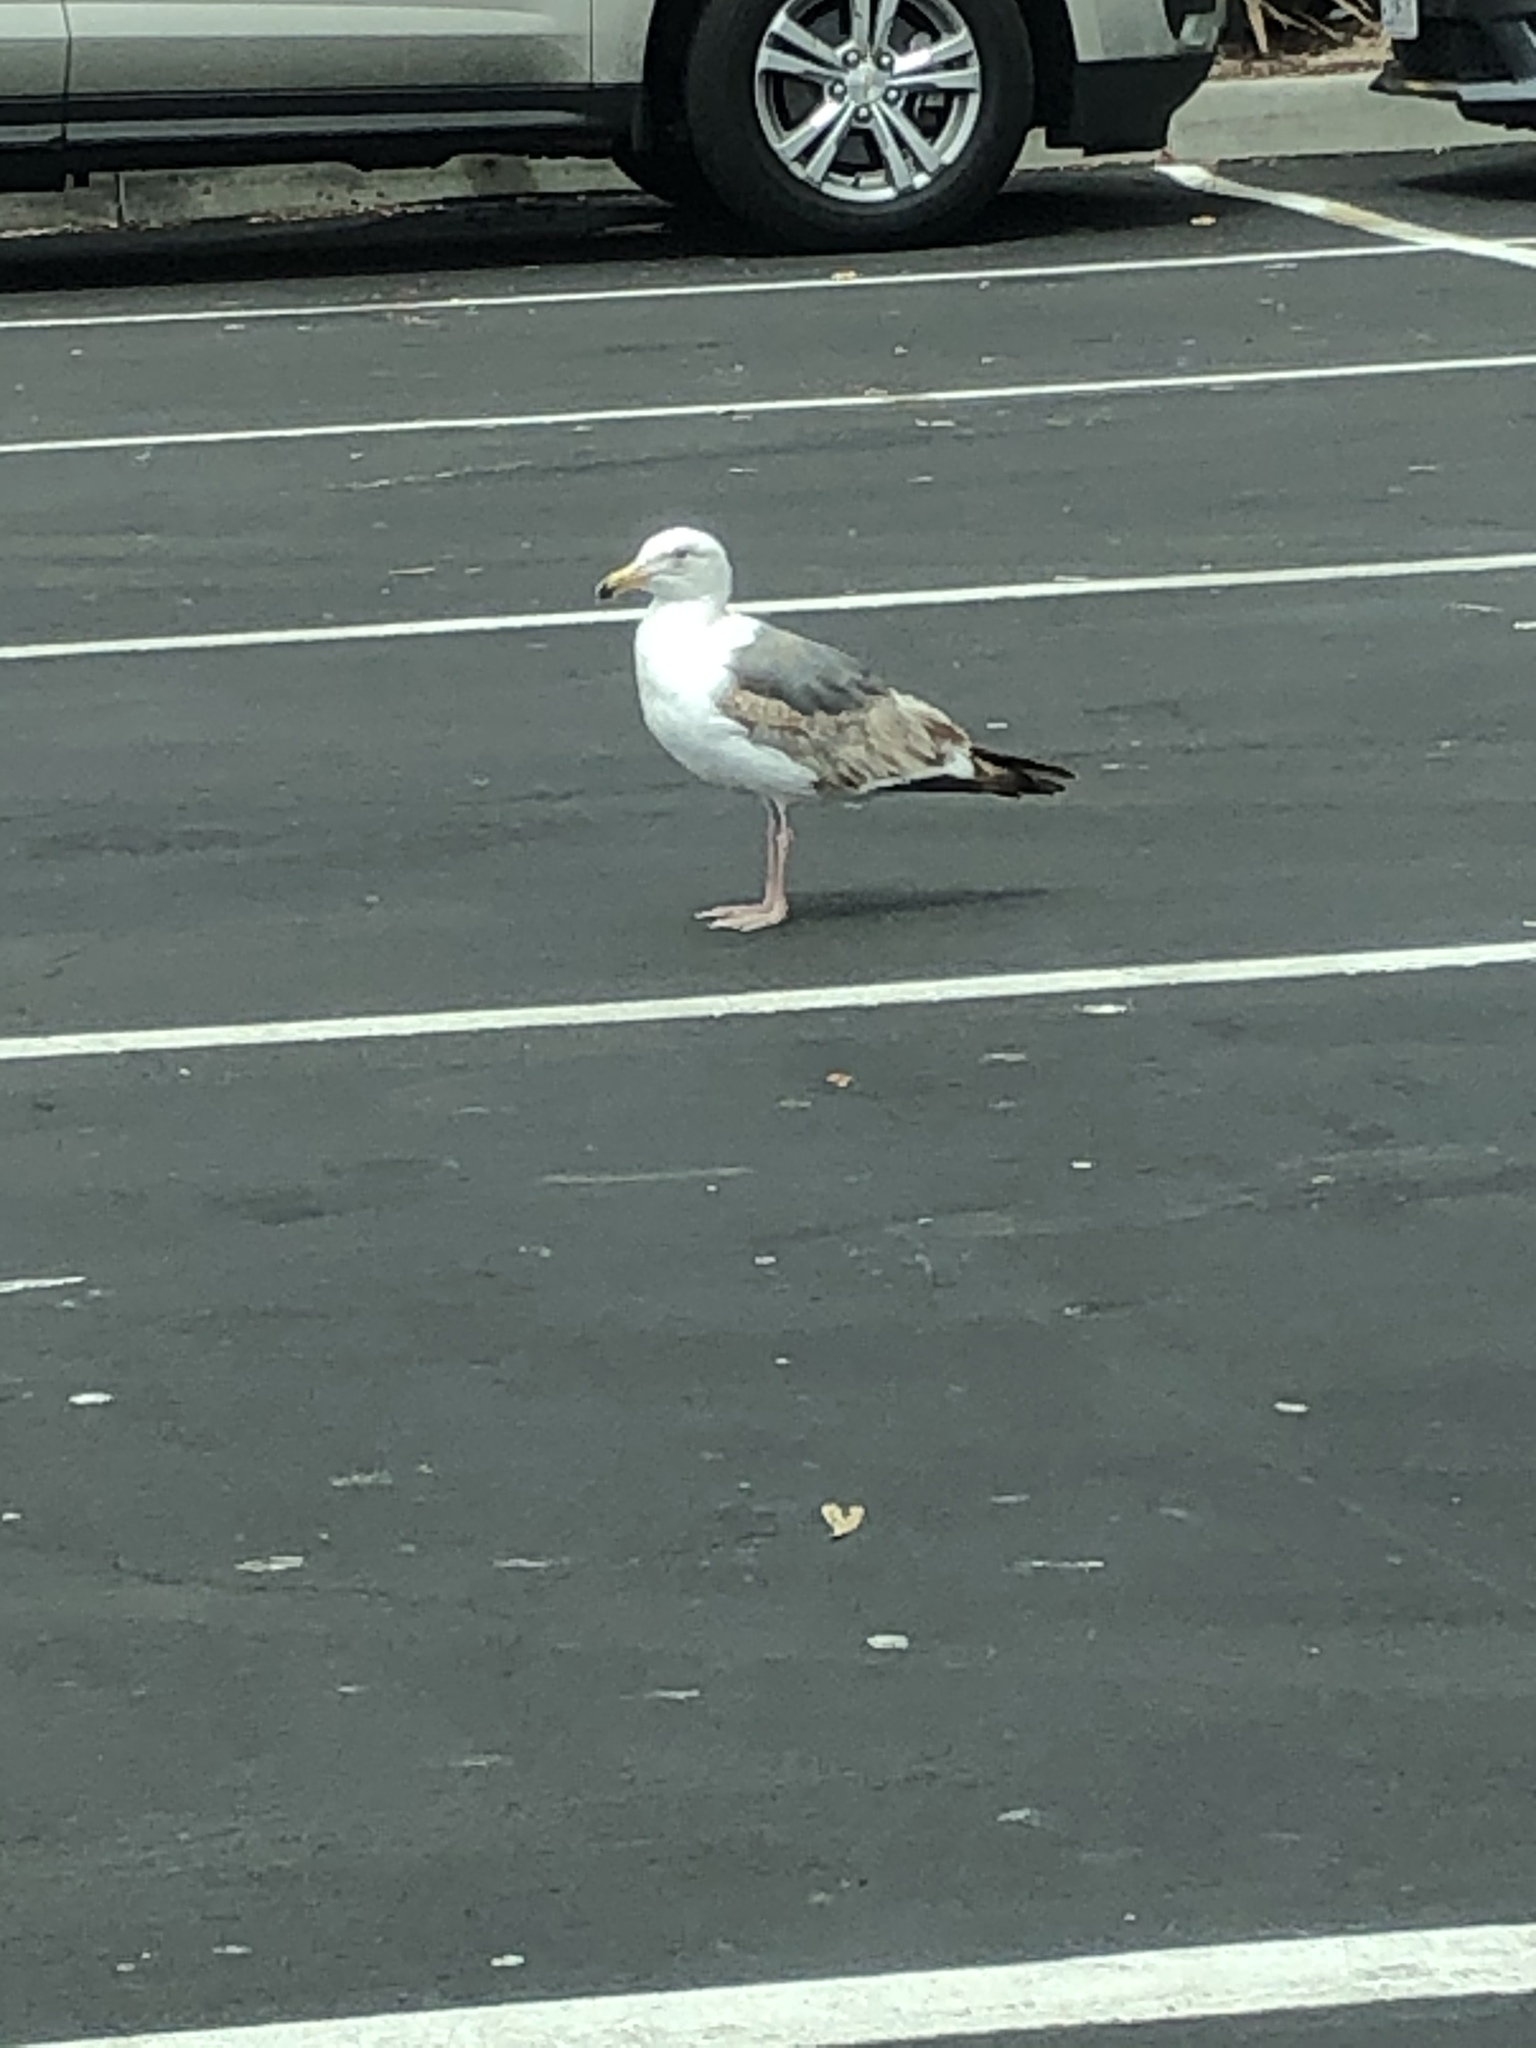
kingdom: Animalia
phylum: Chordata
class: Aves
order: Charadriiformes
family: Laridae
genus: Larus
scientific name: Larus occidentalis
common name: Western gull
